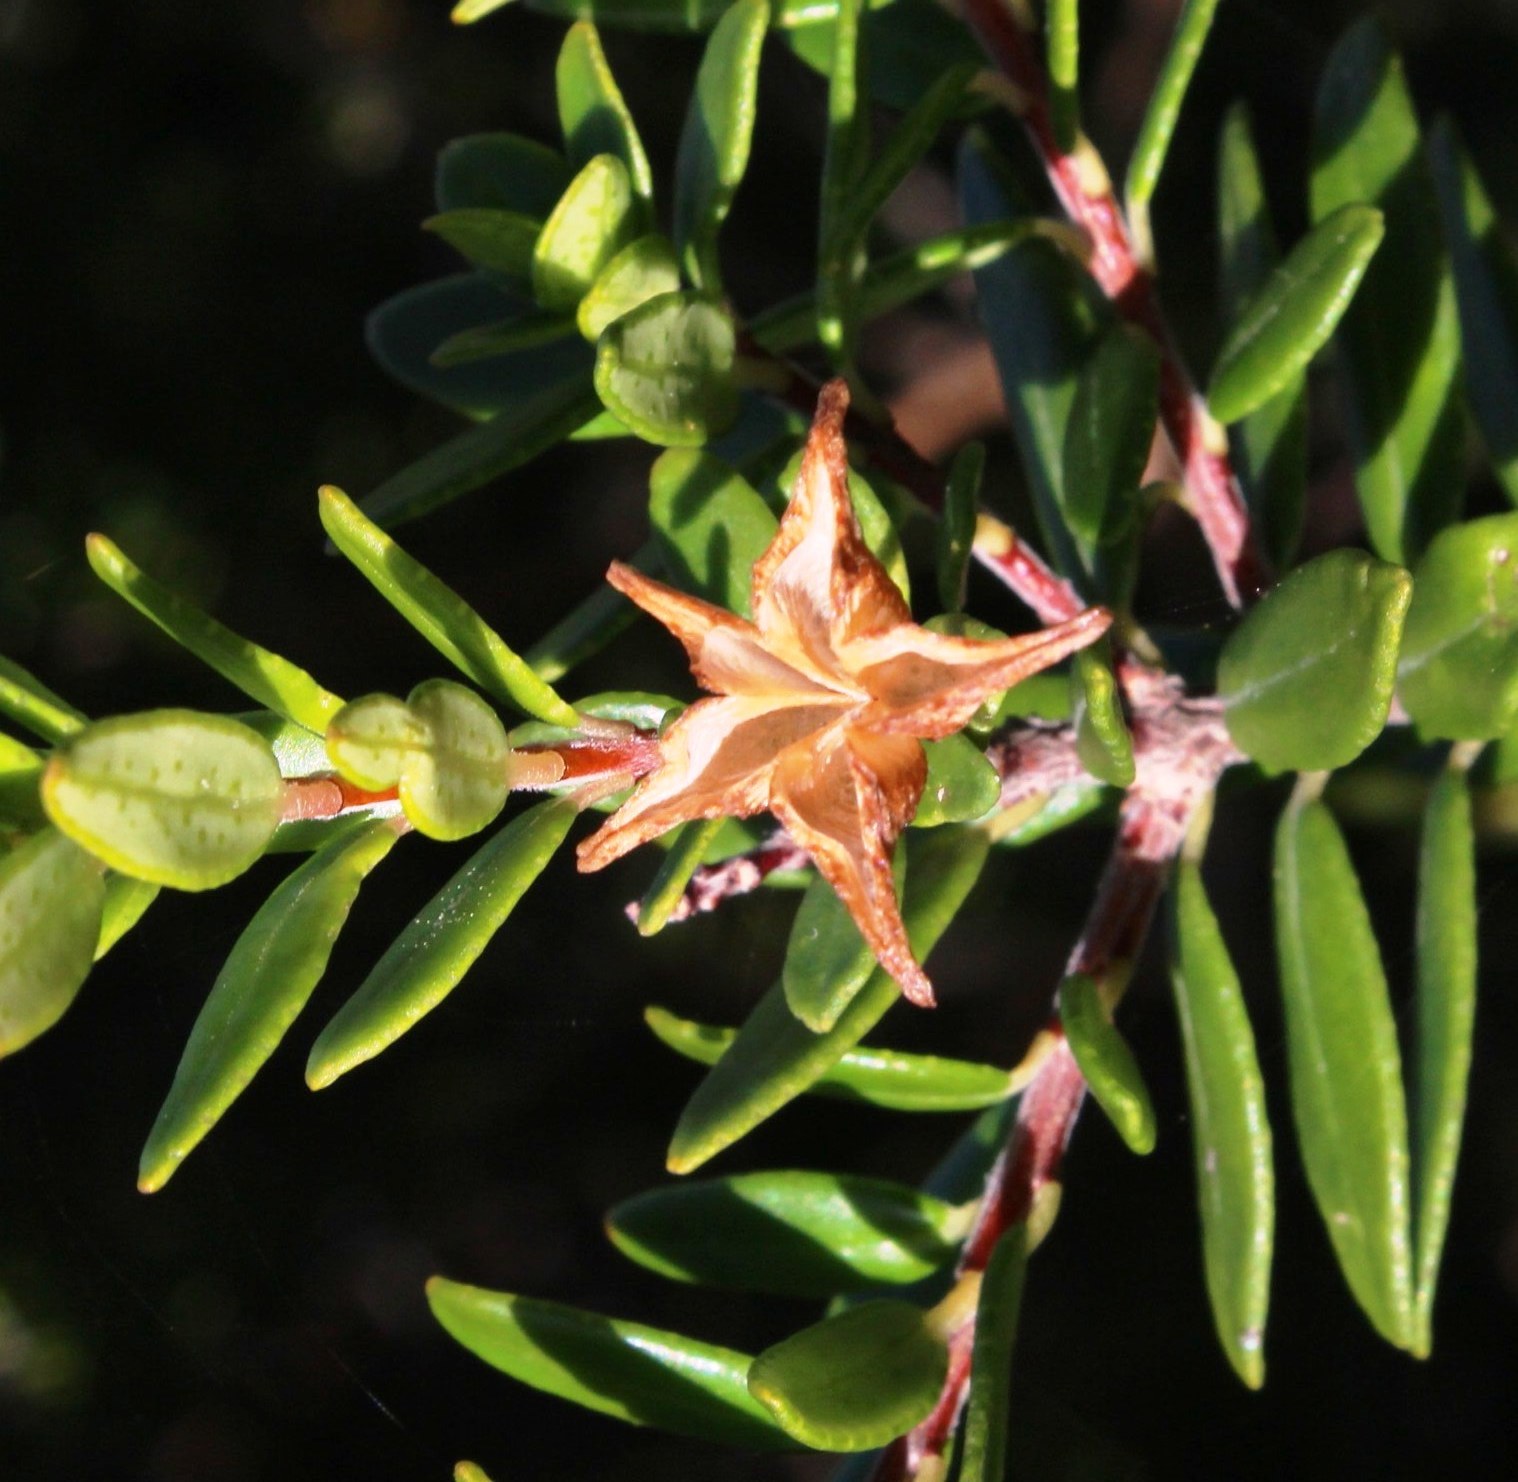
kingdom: Plantae
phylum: Tracheophyta
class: Magnoliopsida
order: Sapindales
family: Rutaceae
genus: Agathosma
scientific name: Agathosma ovata
